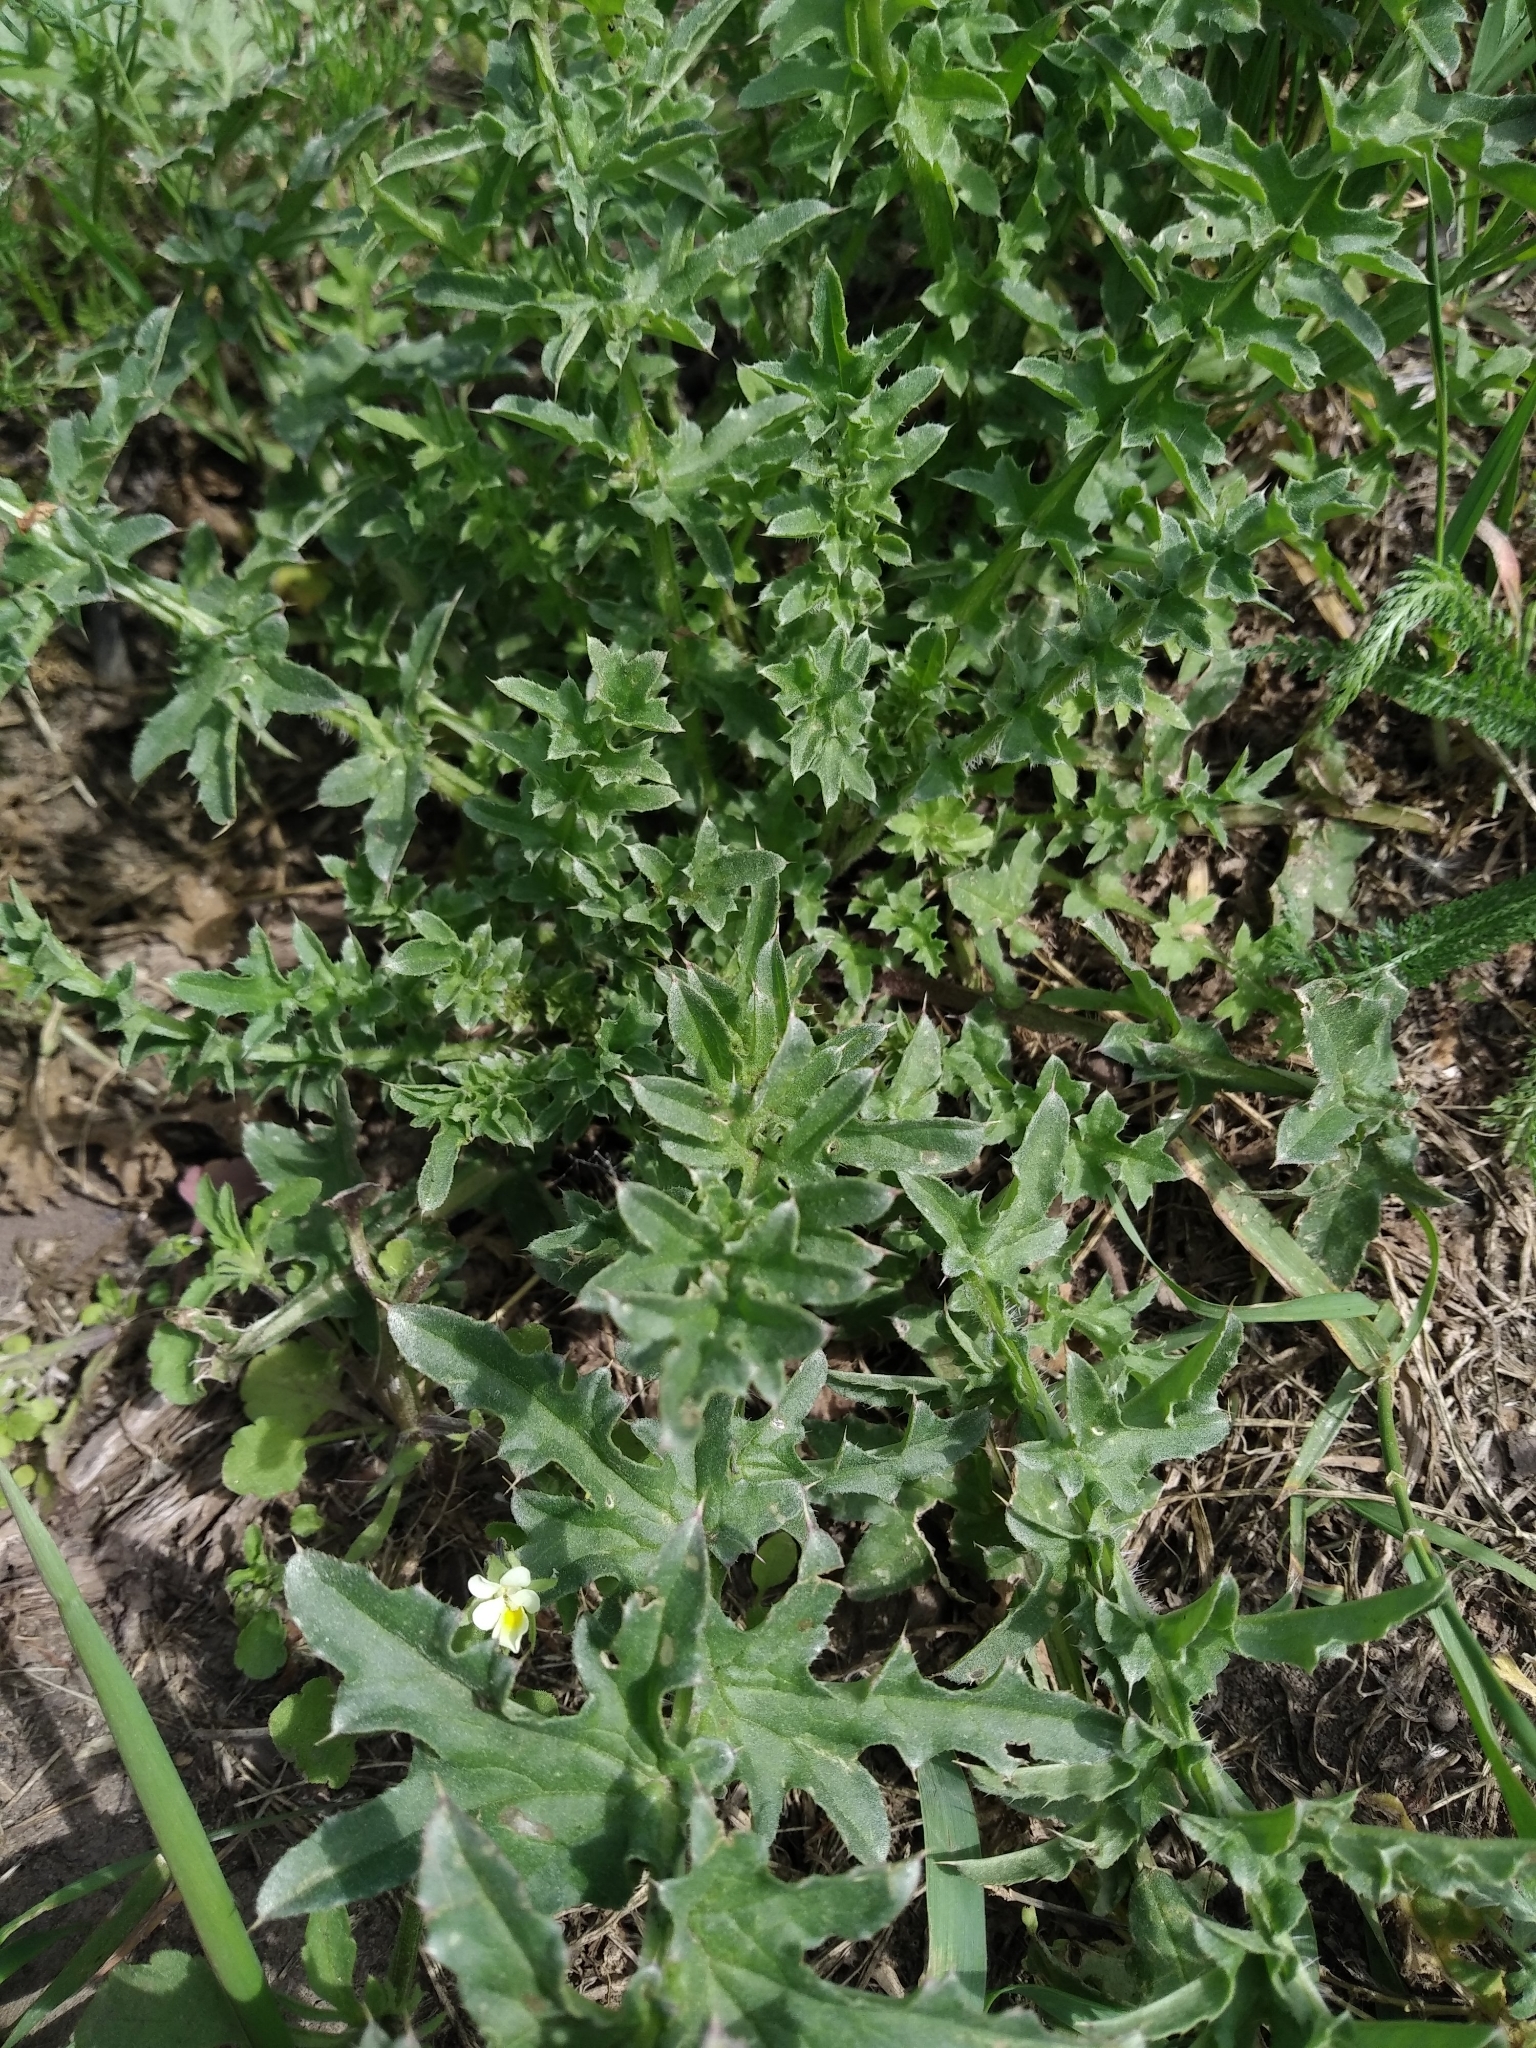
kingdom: Plantae
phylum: Tracheophyta
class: Magnoliopsida
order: Asterales
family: Asteraceae
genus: Carduus
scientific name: Carduus acanthoides
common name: Plumeless thistle
